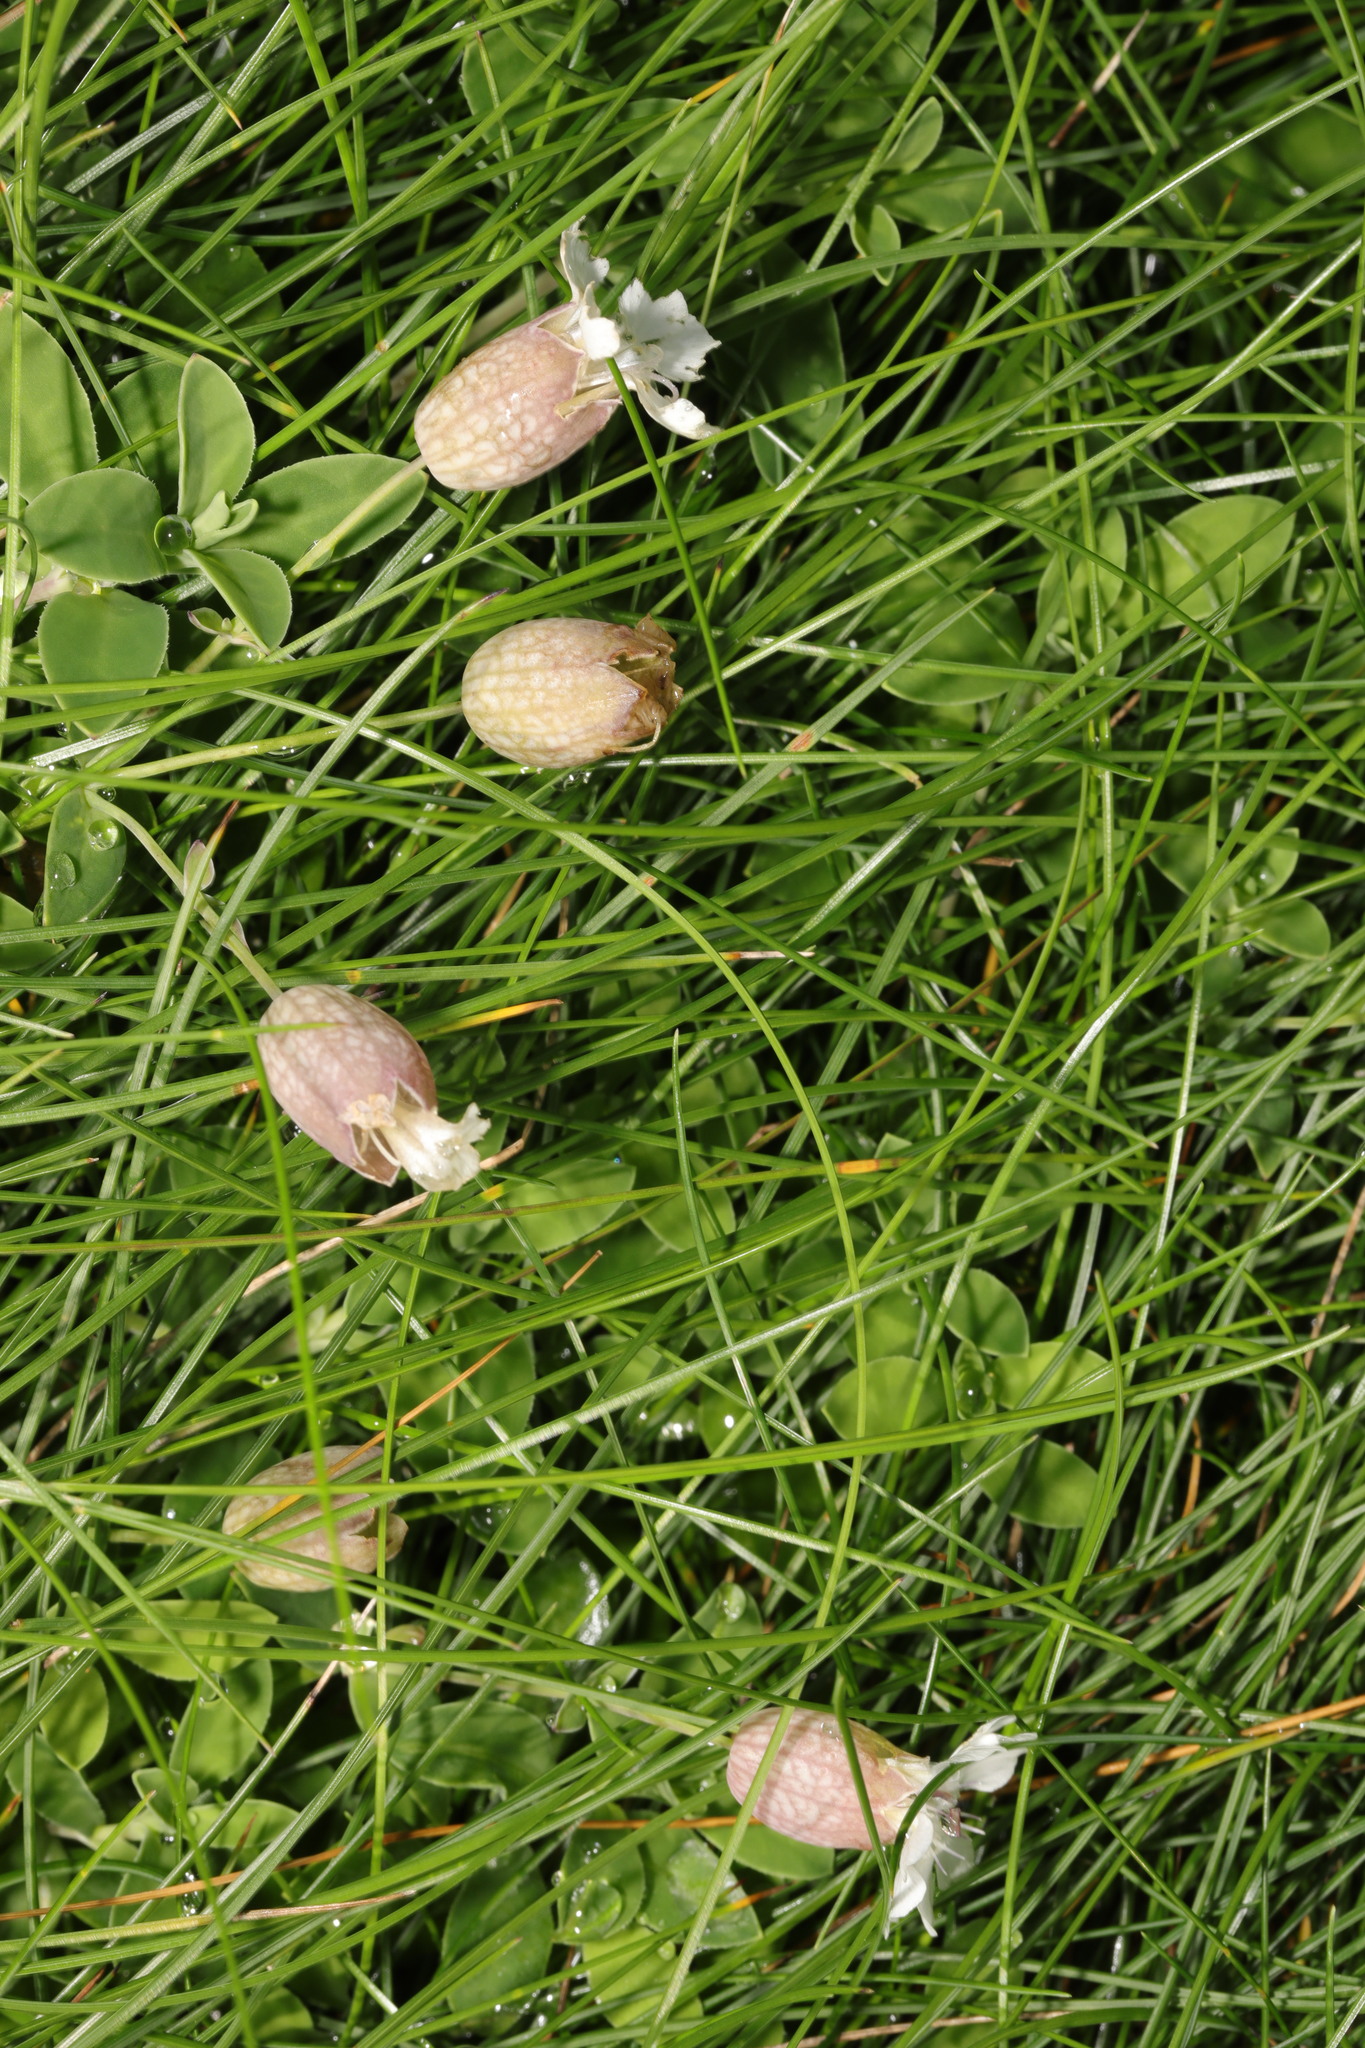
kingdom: Plantae
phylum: Tracheophyta
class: Magnoliopsida
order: Caryophyllales
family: Caryophyllaceae
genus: Silene
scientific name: Silene uniflora
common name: Sea campion
